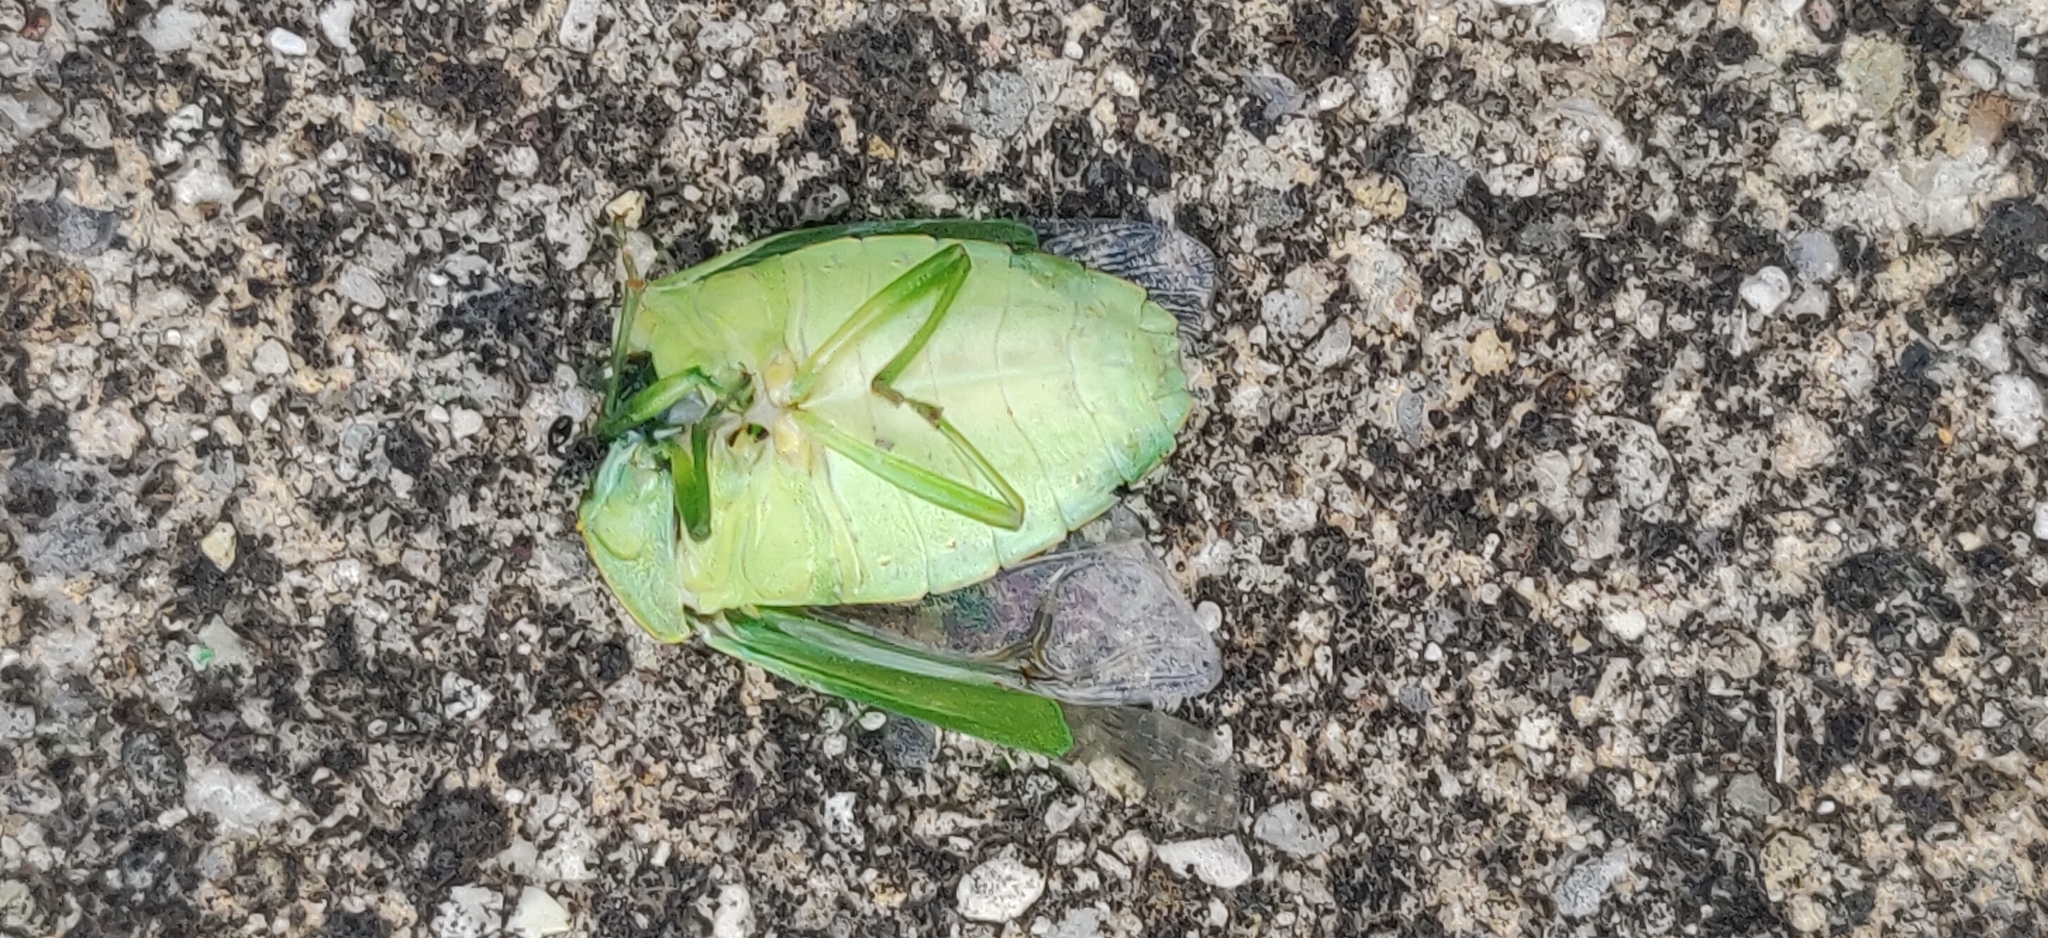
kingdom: Animalia
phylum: Arthropoda
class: Insecta
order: Hemiptera
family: Pentatomidae
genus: Chinavia
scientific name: Chinavia hilaris
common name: Green stink bug
